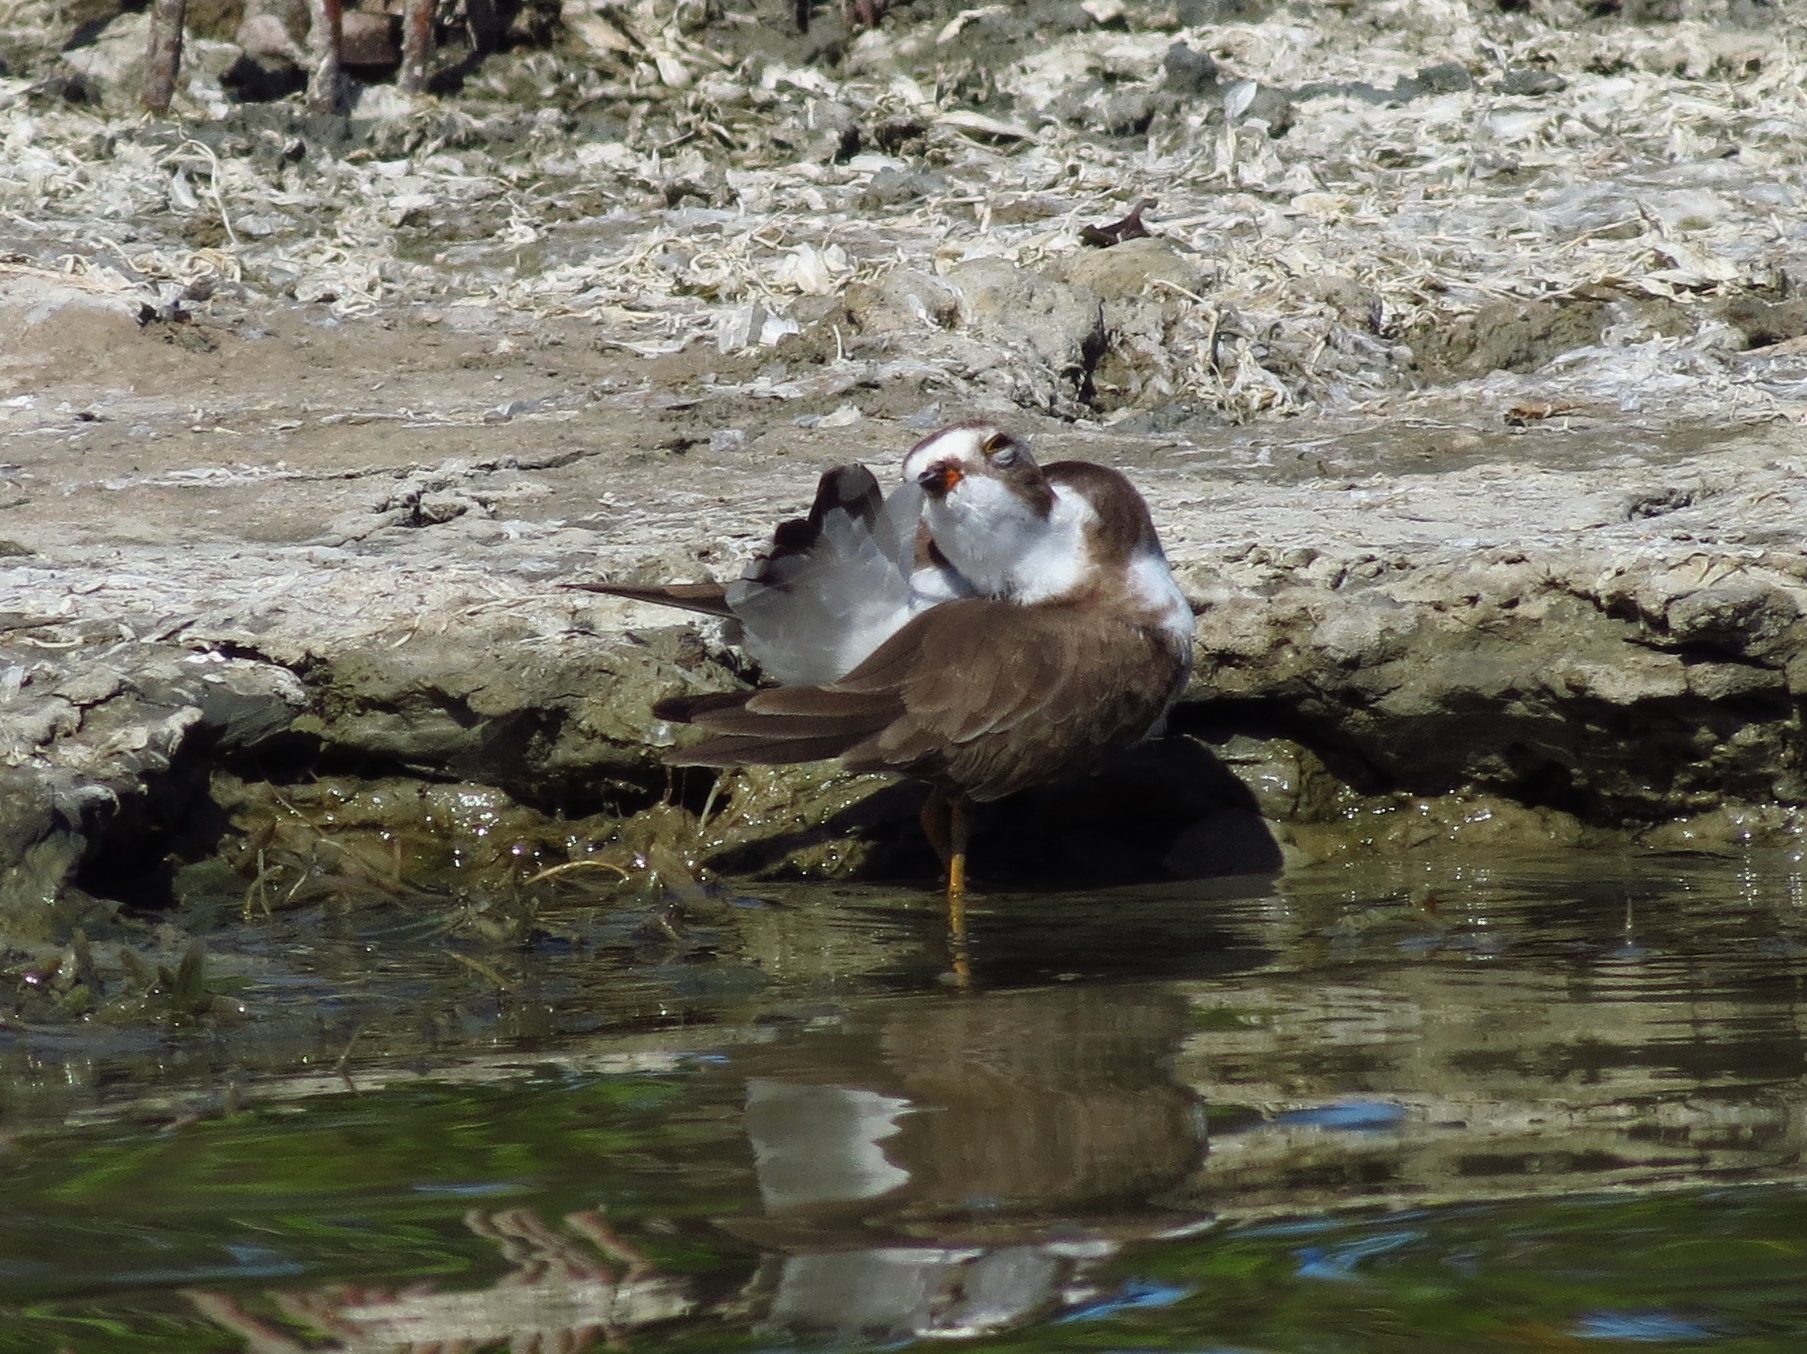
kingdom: Animalia
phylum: Chordata
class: Aves
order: Charadriiformes
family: Charadriidae
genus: Charadrius
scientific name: Charadrius semipalmatus
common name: Semipalmated plover
